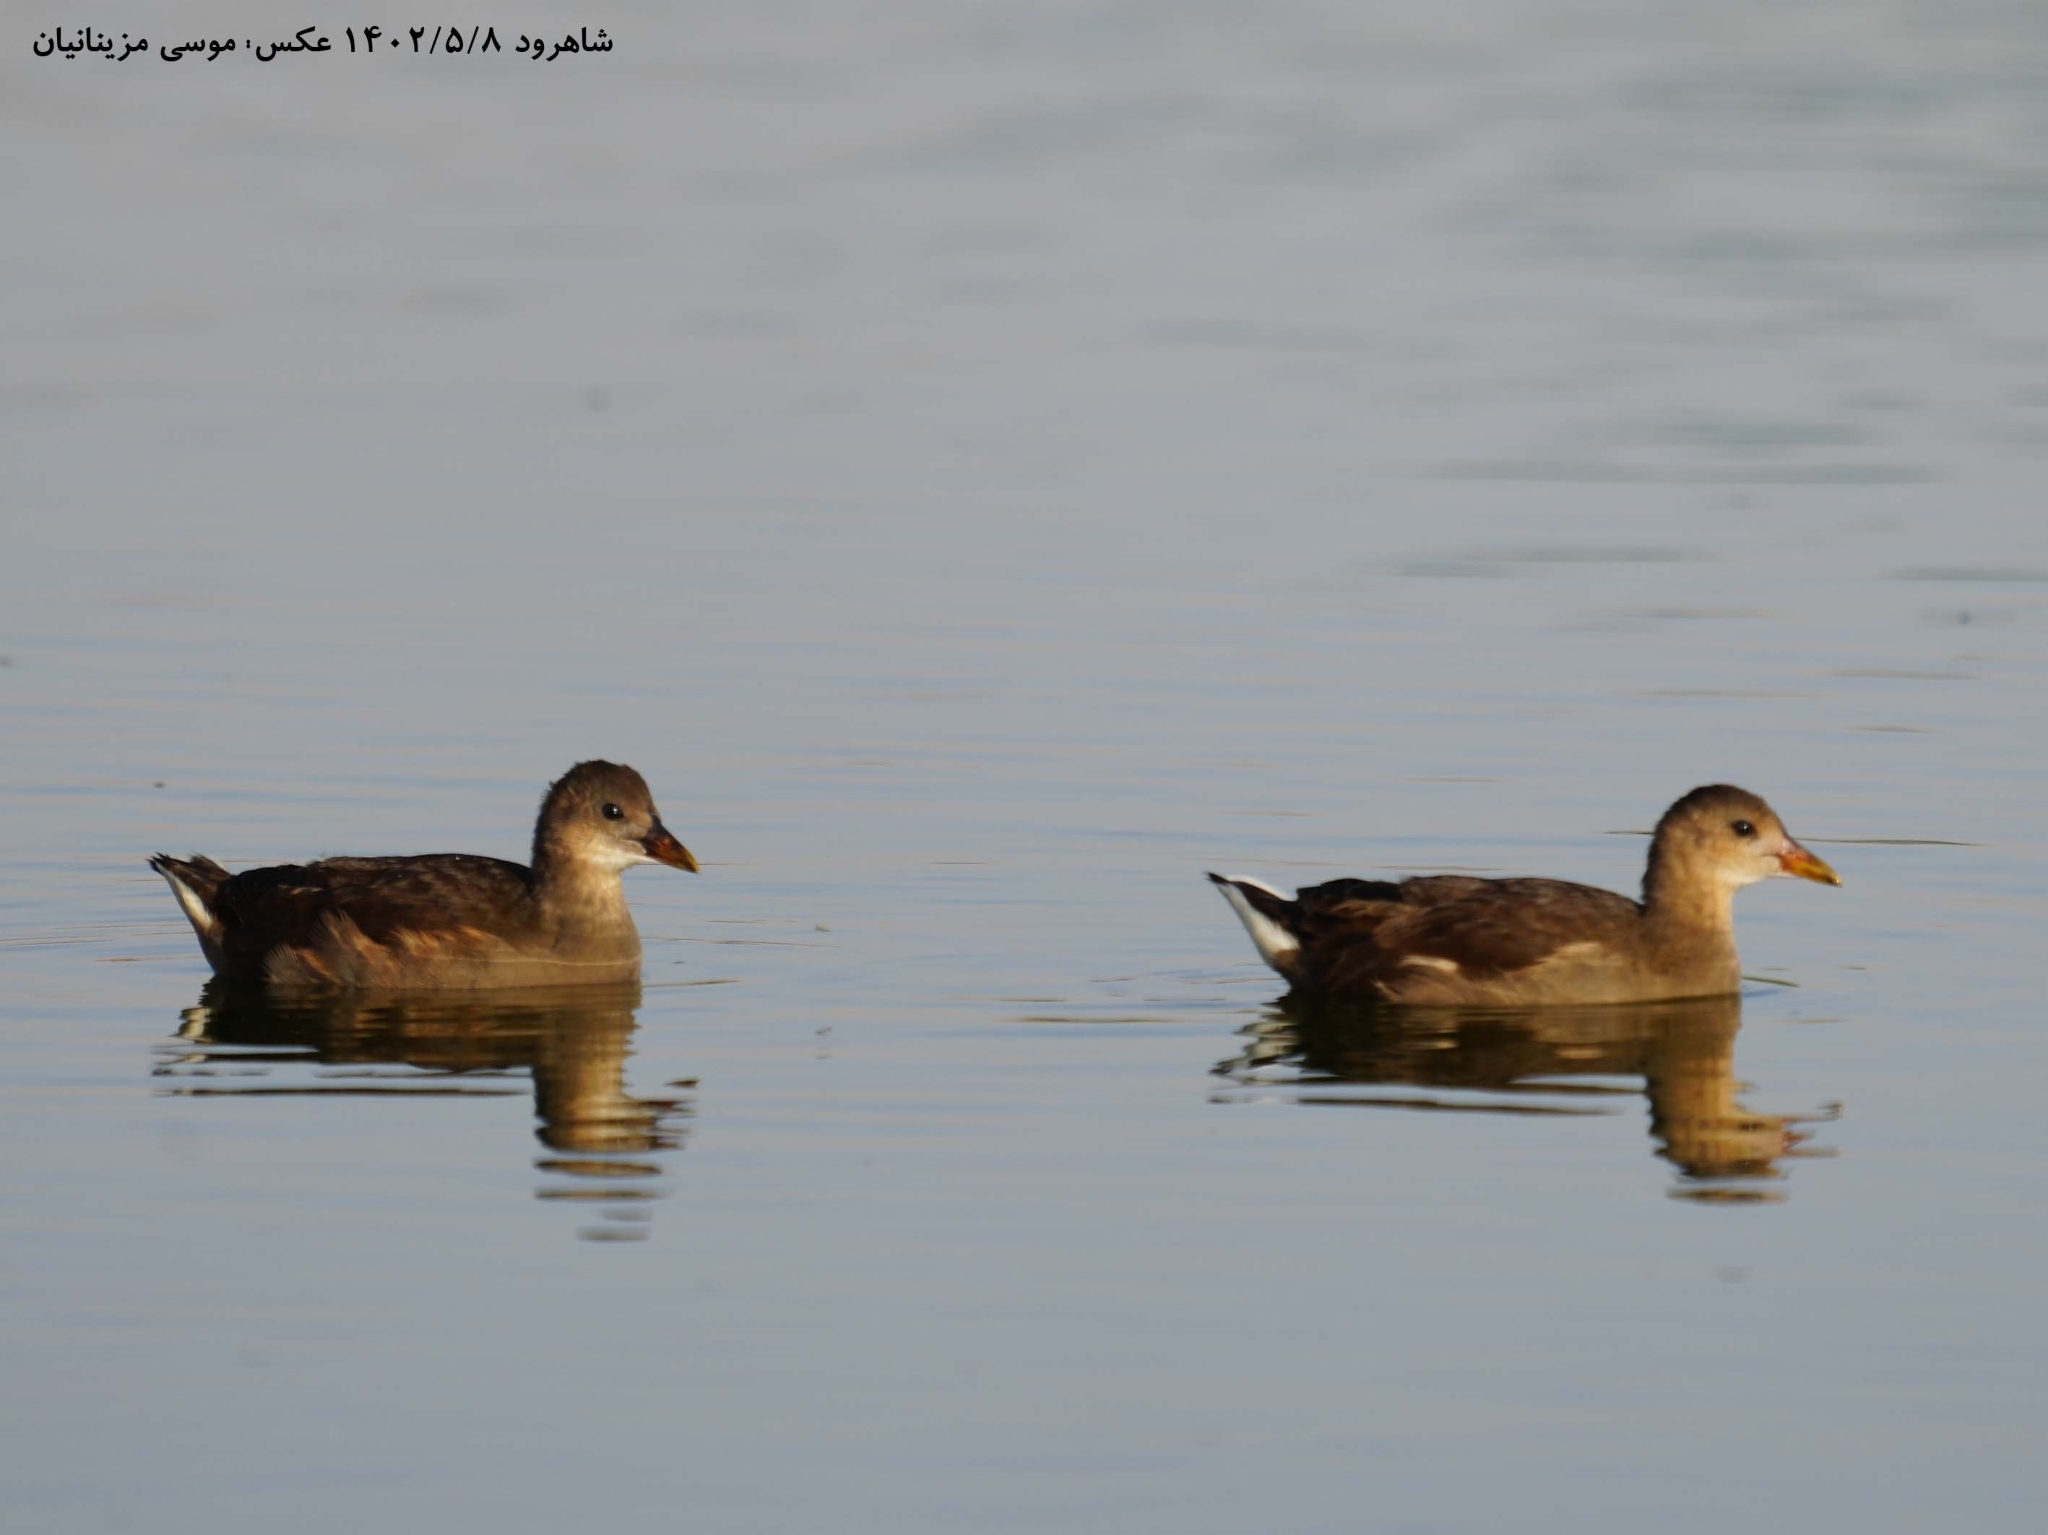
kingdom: Animalia
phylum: Chordata
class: Aves
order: Gruiformes
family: Rallidae
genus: Gallinula
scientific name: Gallinula chloropus
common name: Common moorhen
